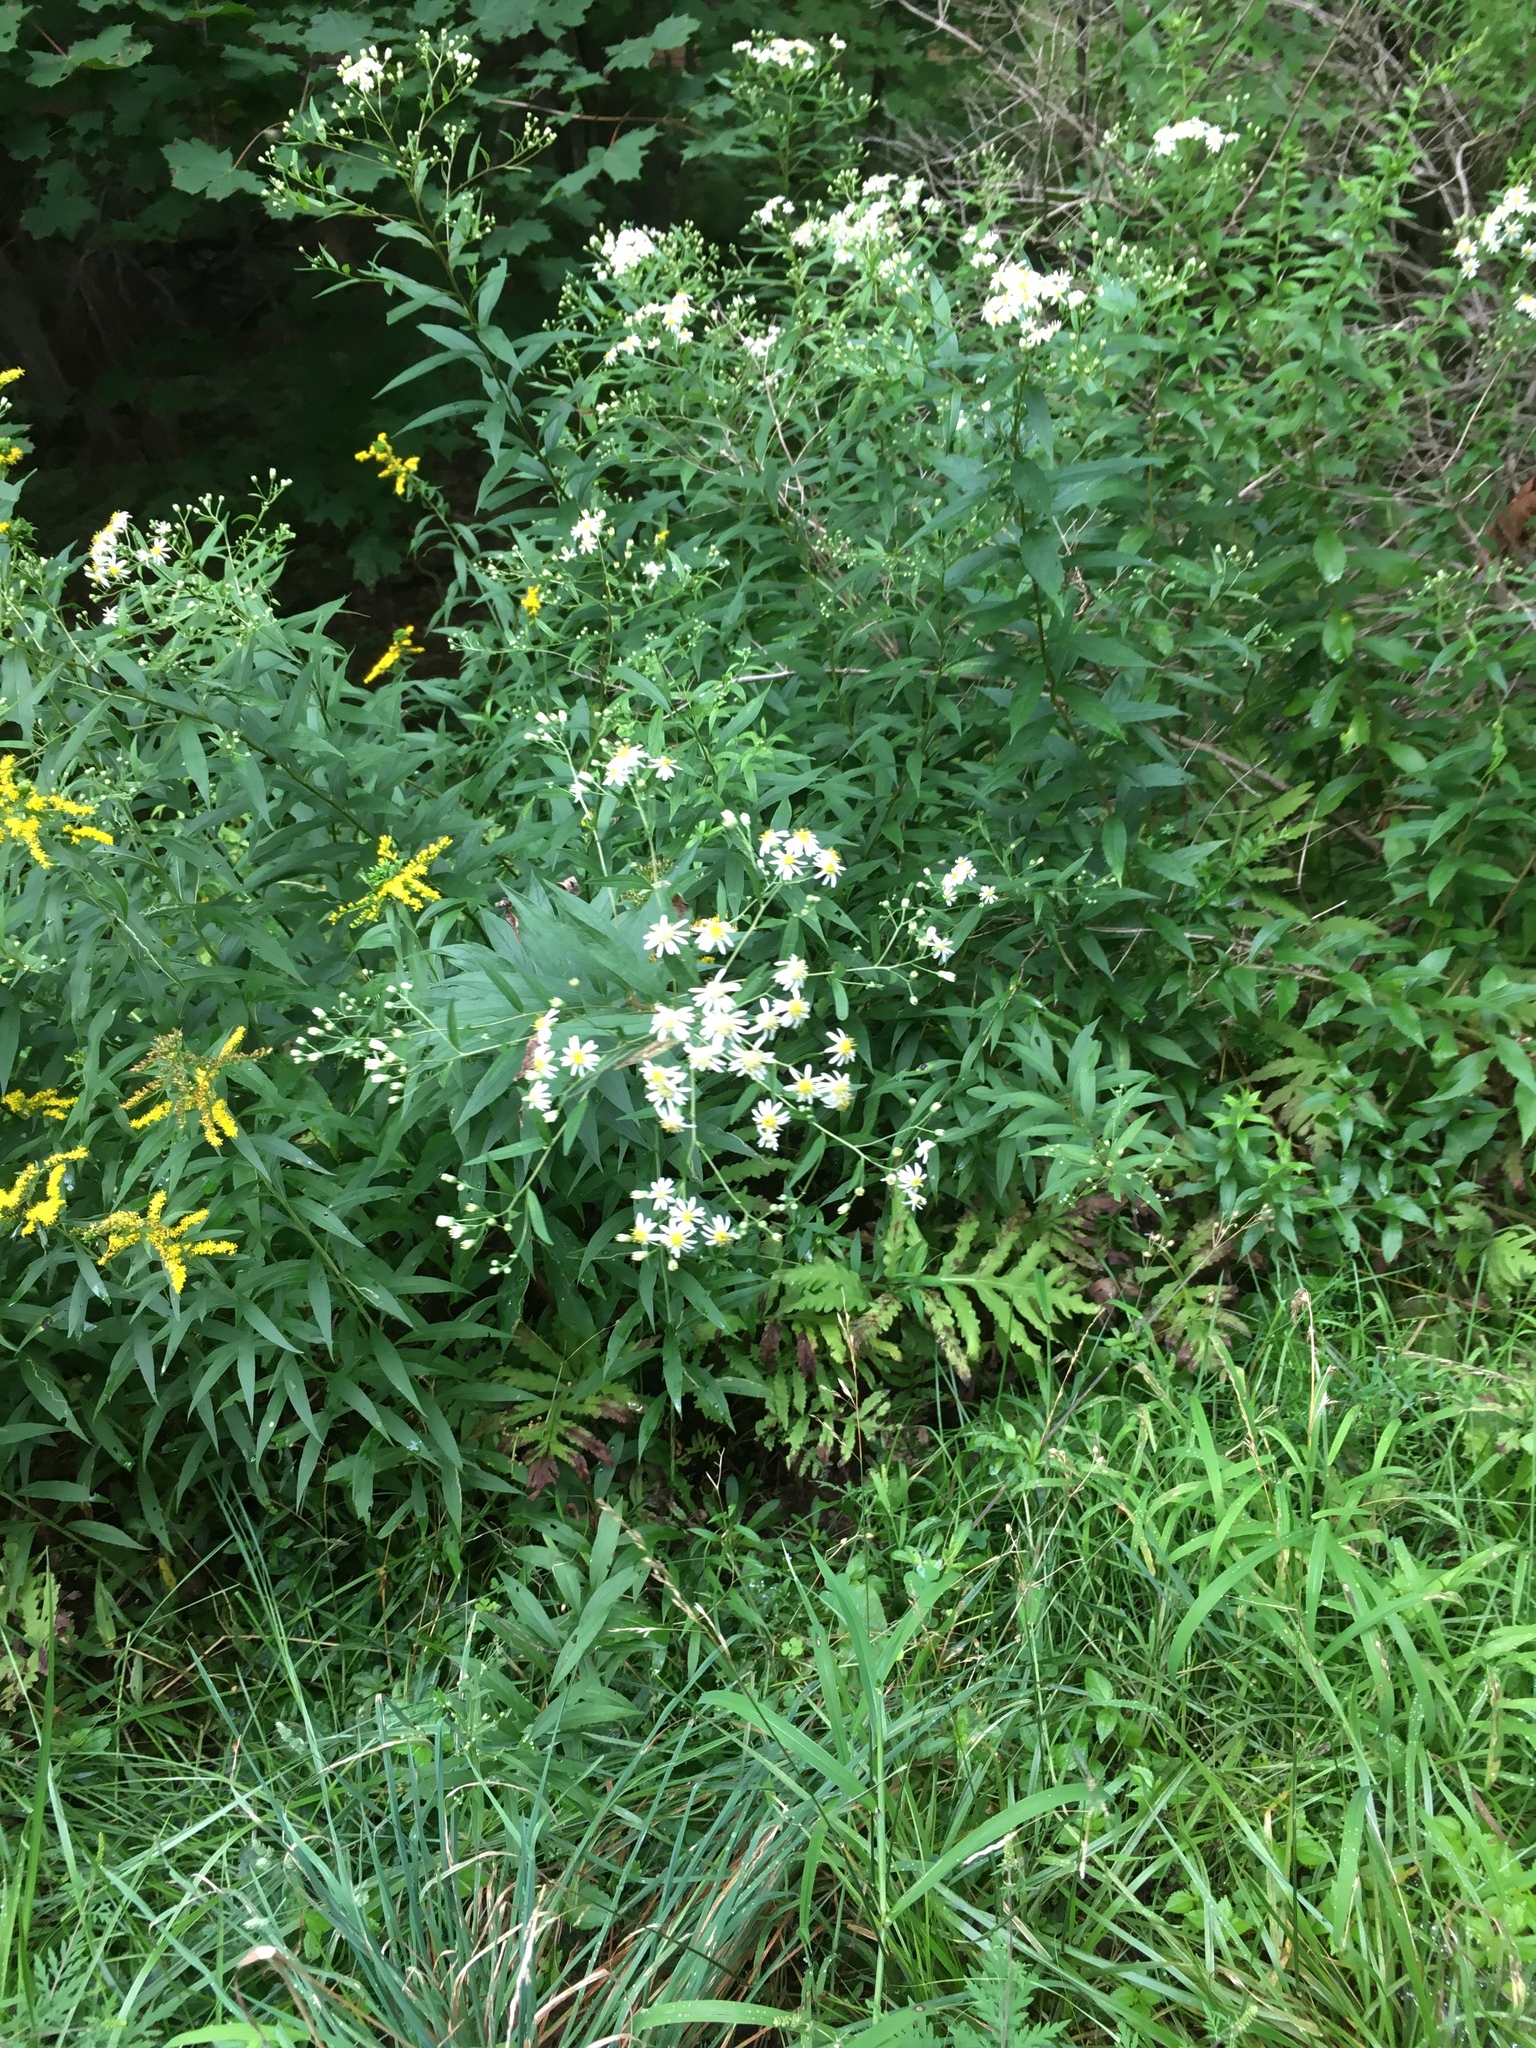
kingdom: Plantae
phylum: Tracheophyta
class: Magnoliopsida
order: Asterales
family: Asteraceae
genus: Doellingeria
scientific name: Doellingeria umbellata
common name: Flat-top white aster
